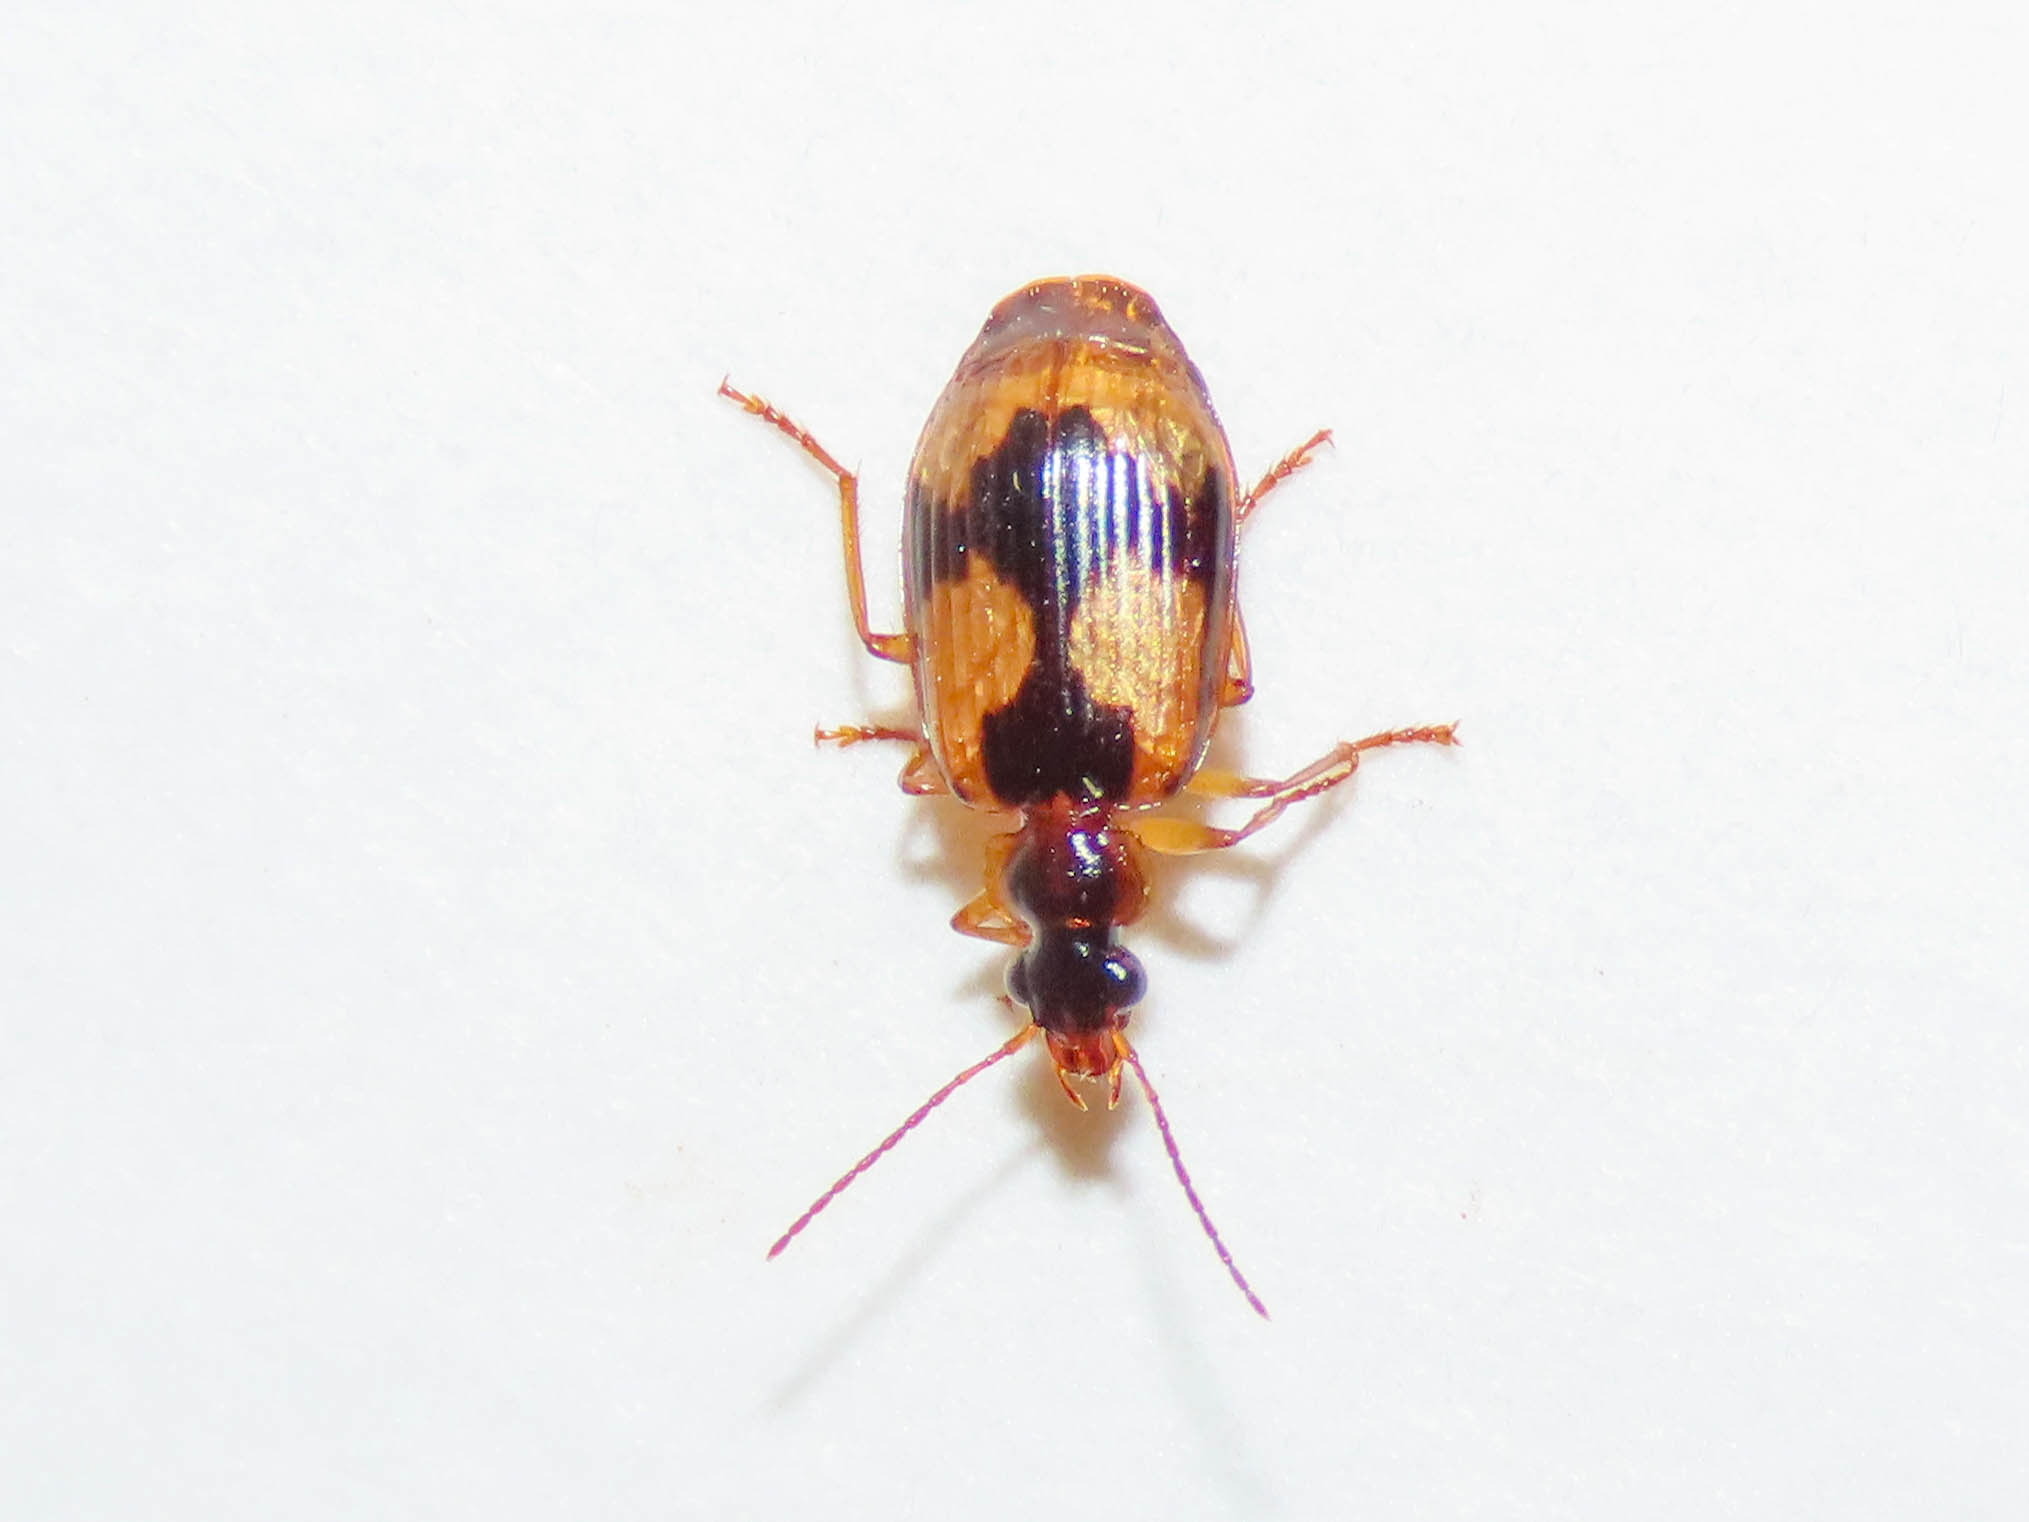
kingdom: Animalia
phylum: Arthropoda
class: Insecta
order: Coleoptera
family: Carabidae
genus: Lebia
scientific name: Lebia fuscata
